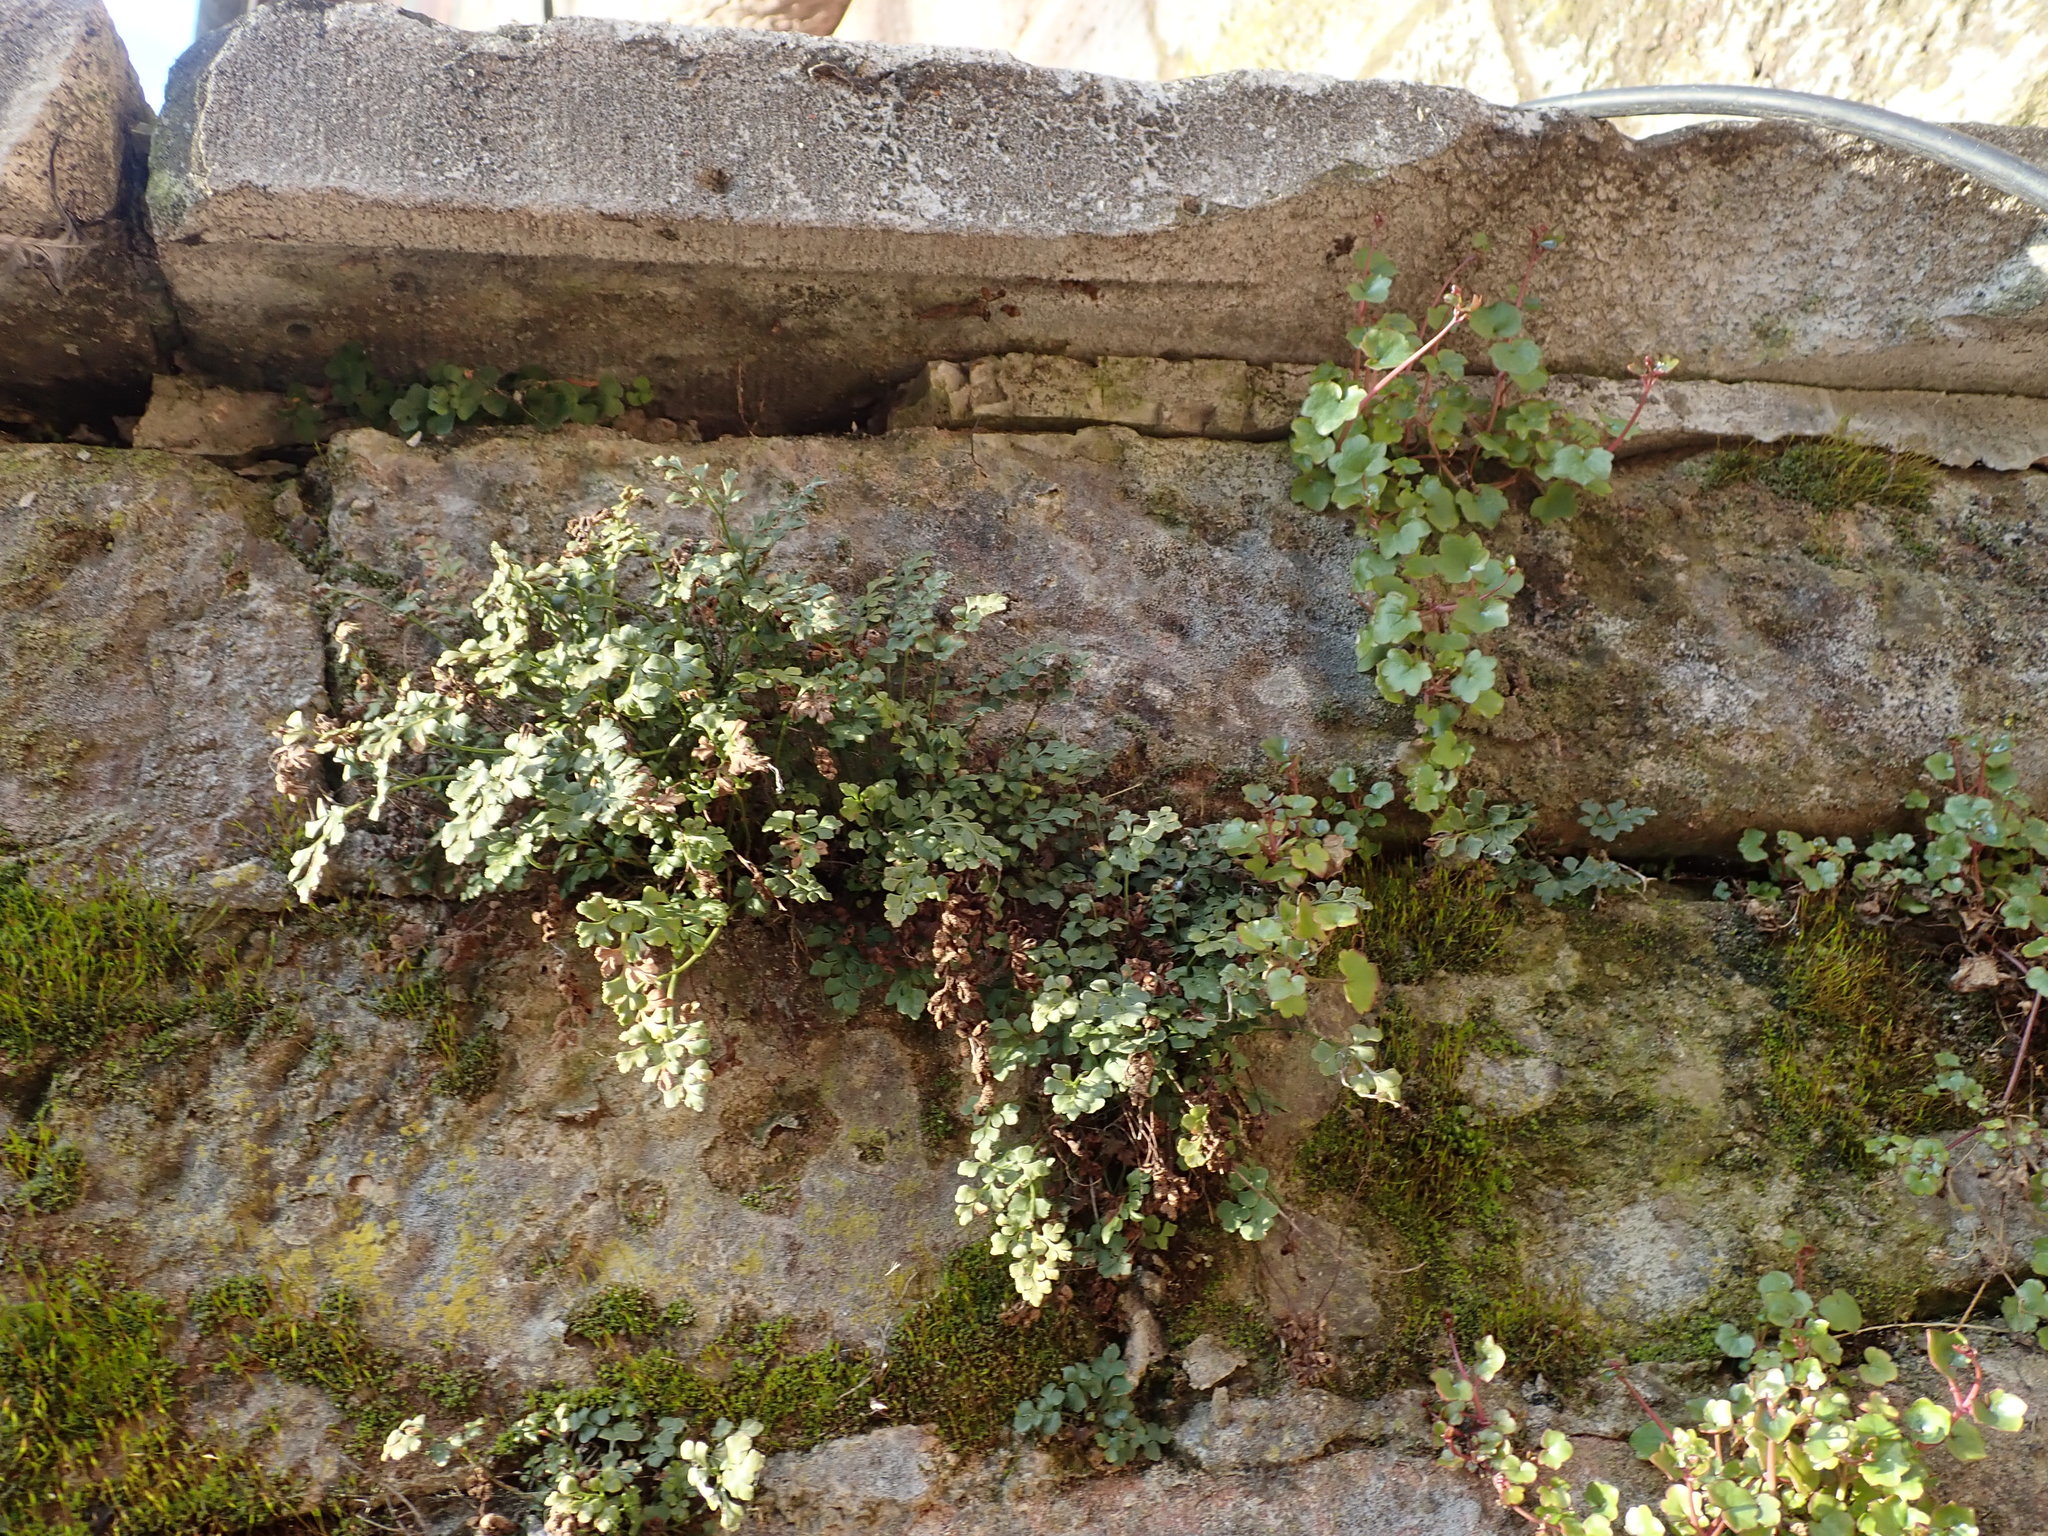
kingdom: Plantae
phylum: Tracheophyta
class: Polypodiopsida
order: Polypodiales
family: Aspleniaceae
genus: Asplenium
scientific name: Asplenium ruta-muraria
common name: Wall-rue
